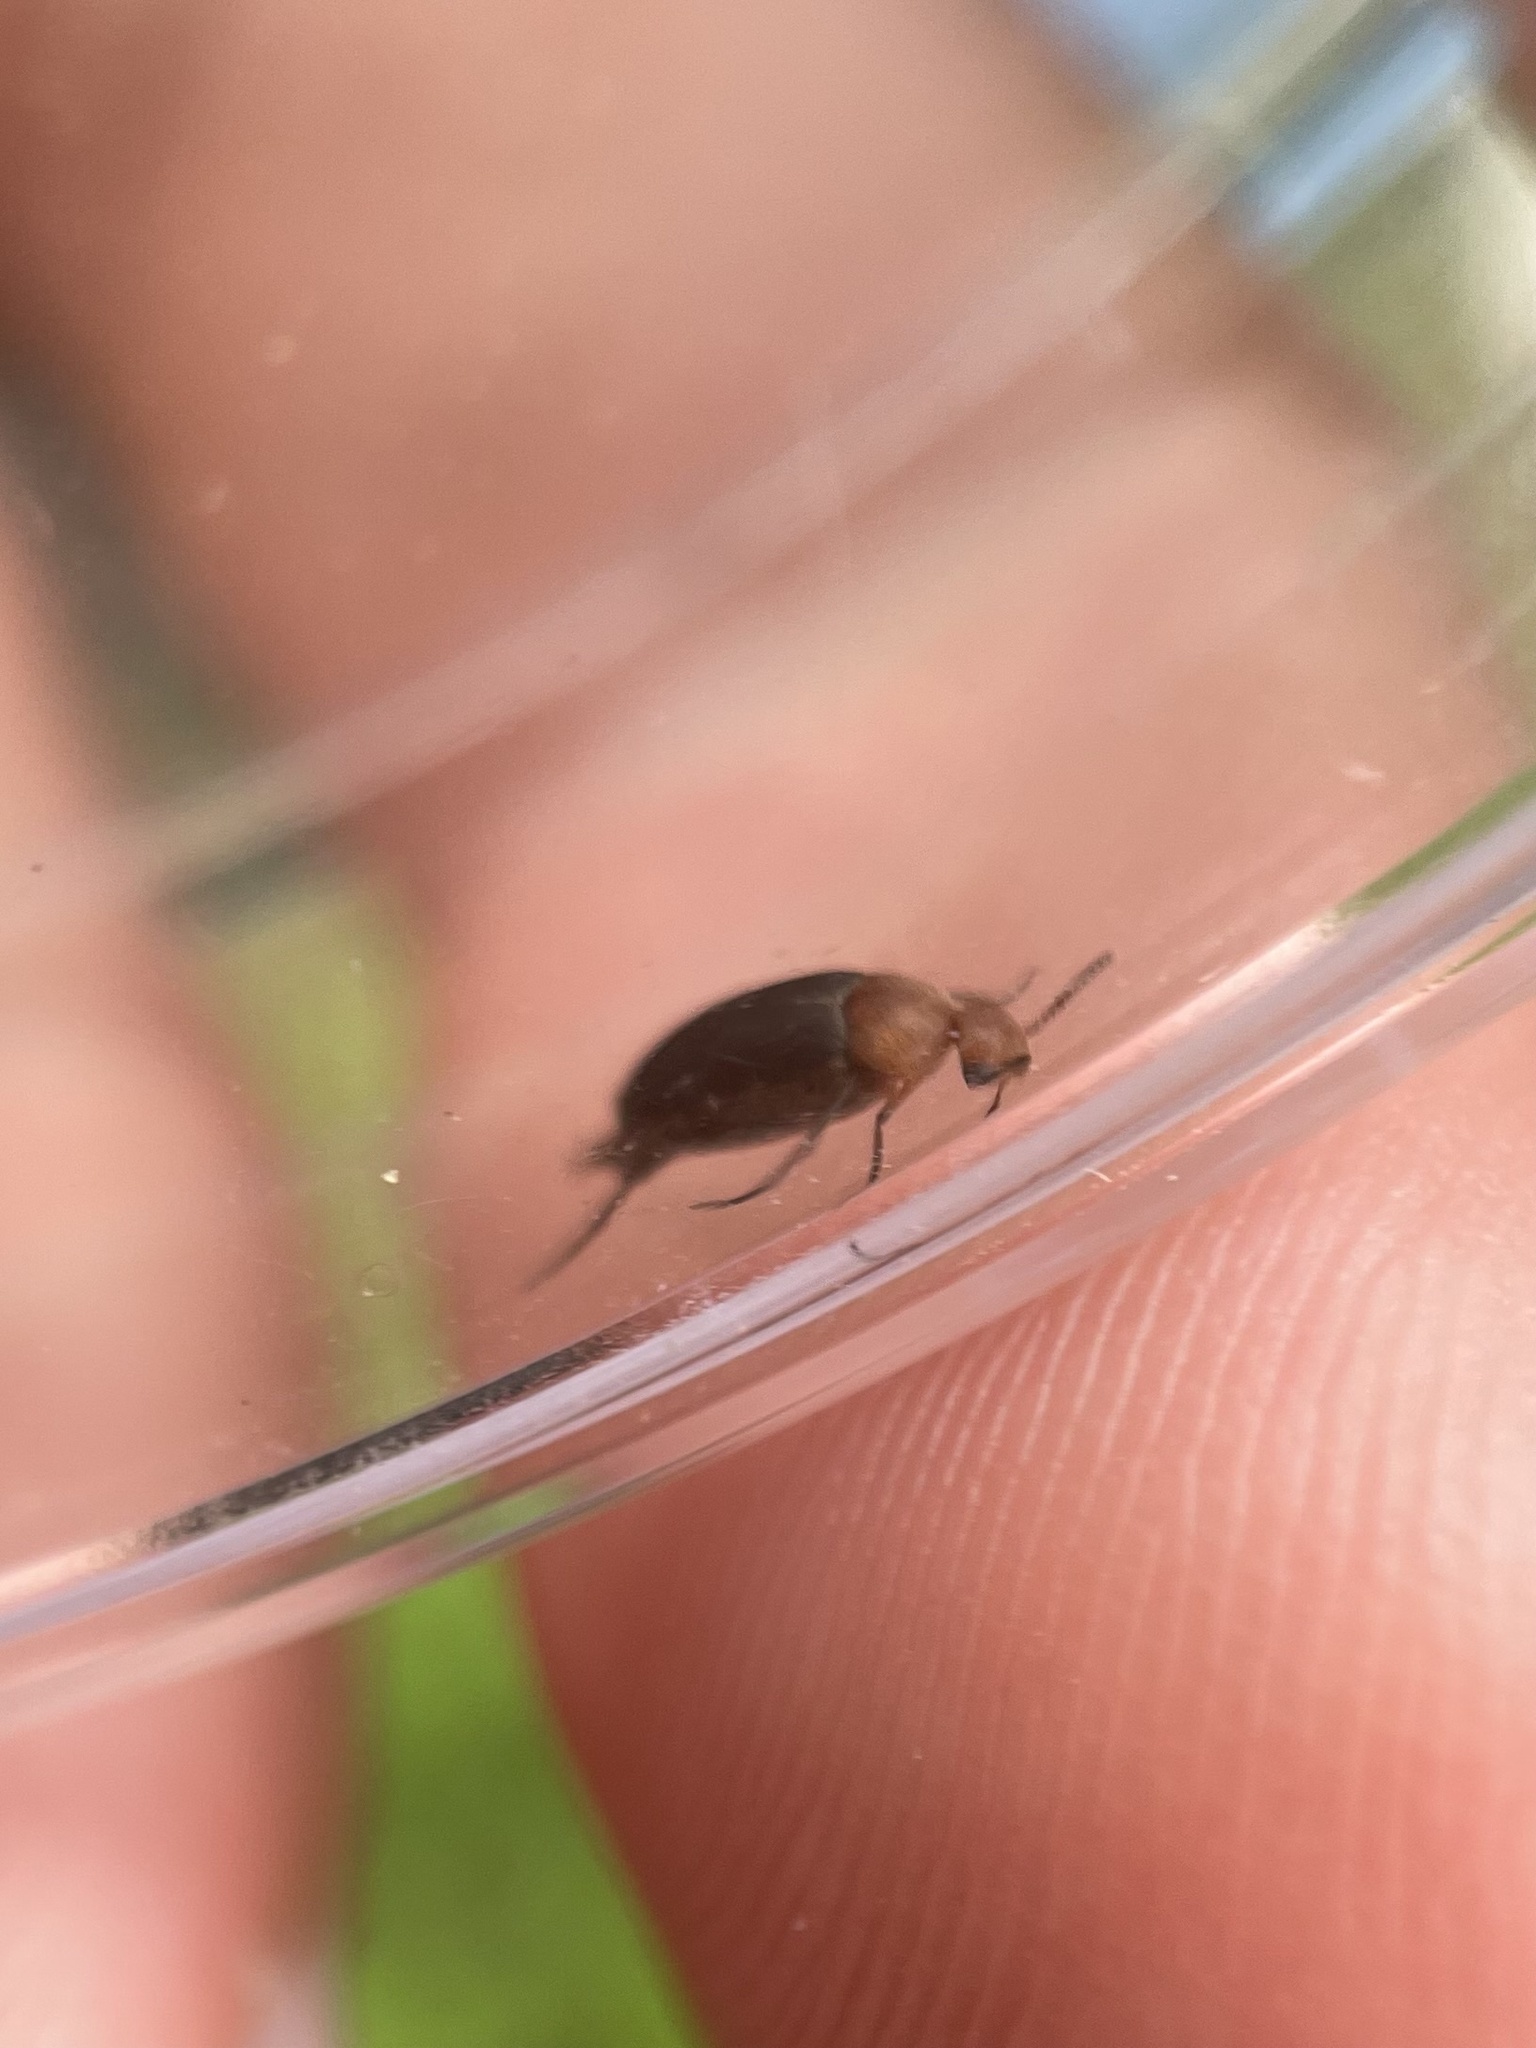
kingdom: Animalia
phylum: Arthropoda
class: Insecta
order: Coleoptera
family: Mordellidae
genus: Mordellistena
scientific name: Mordellistena cervicalis
